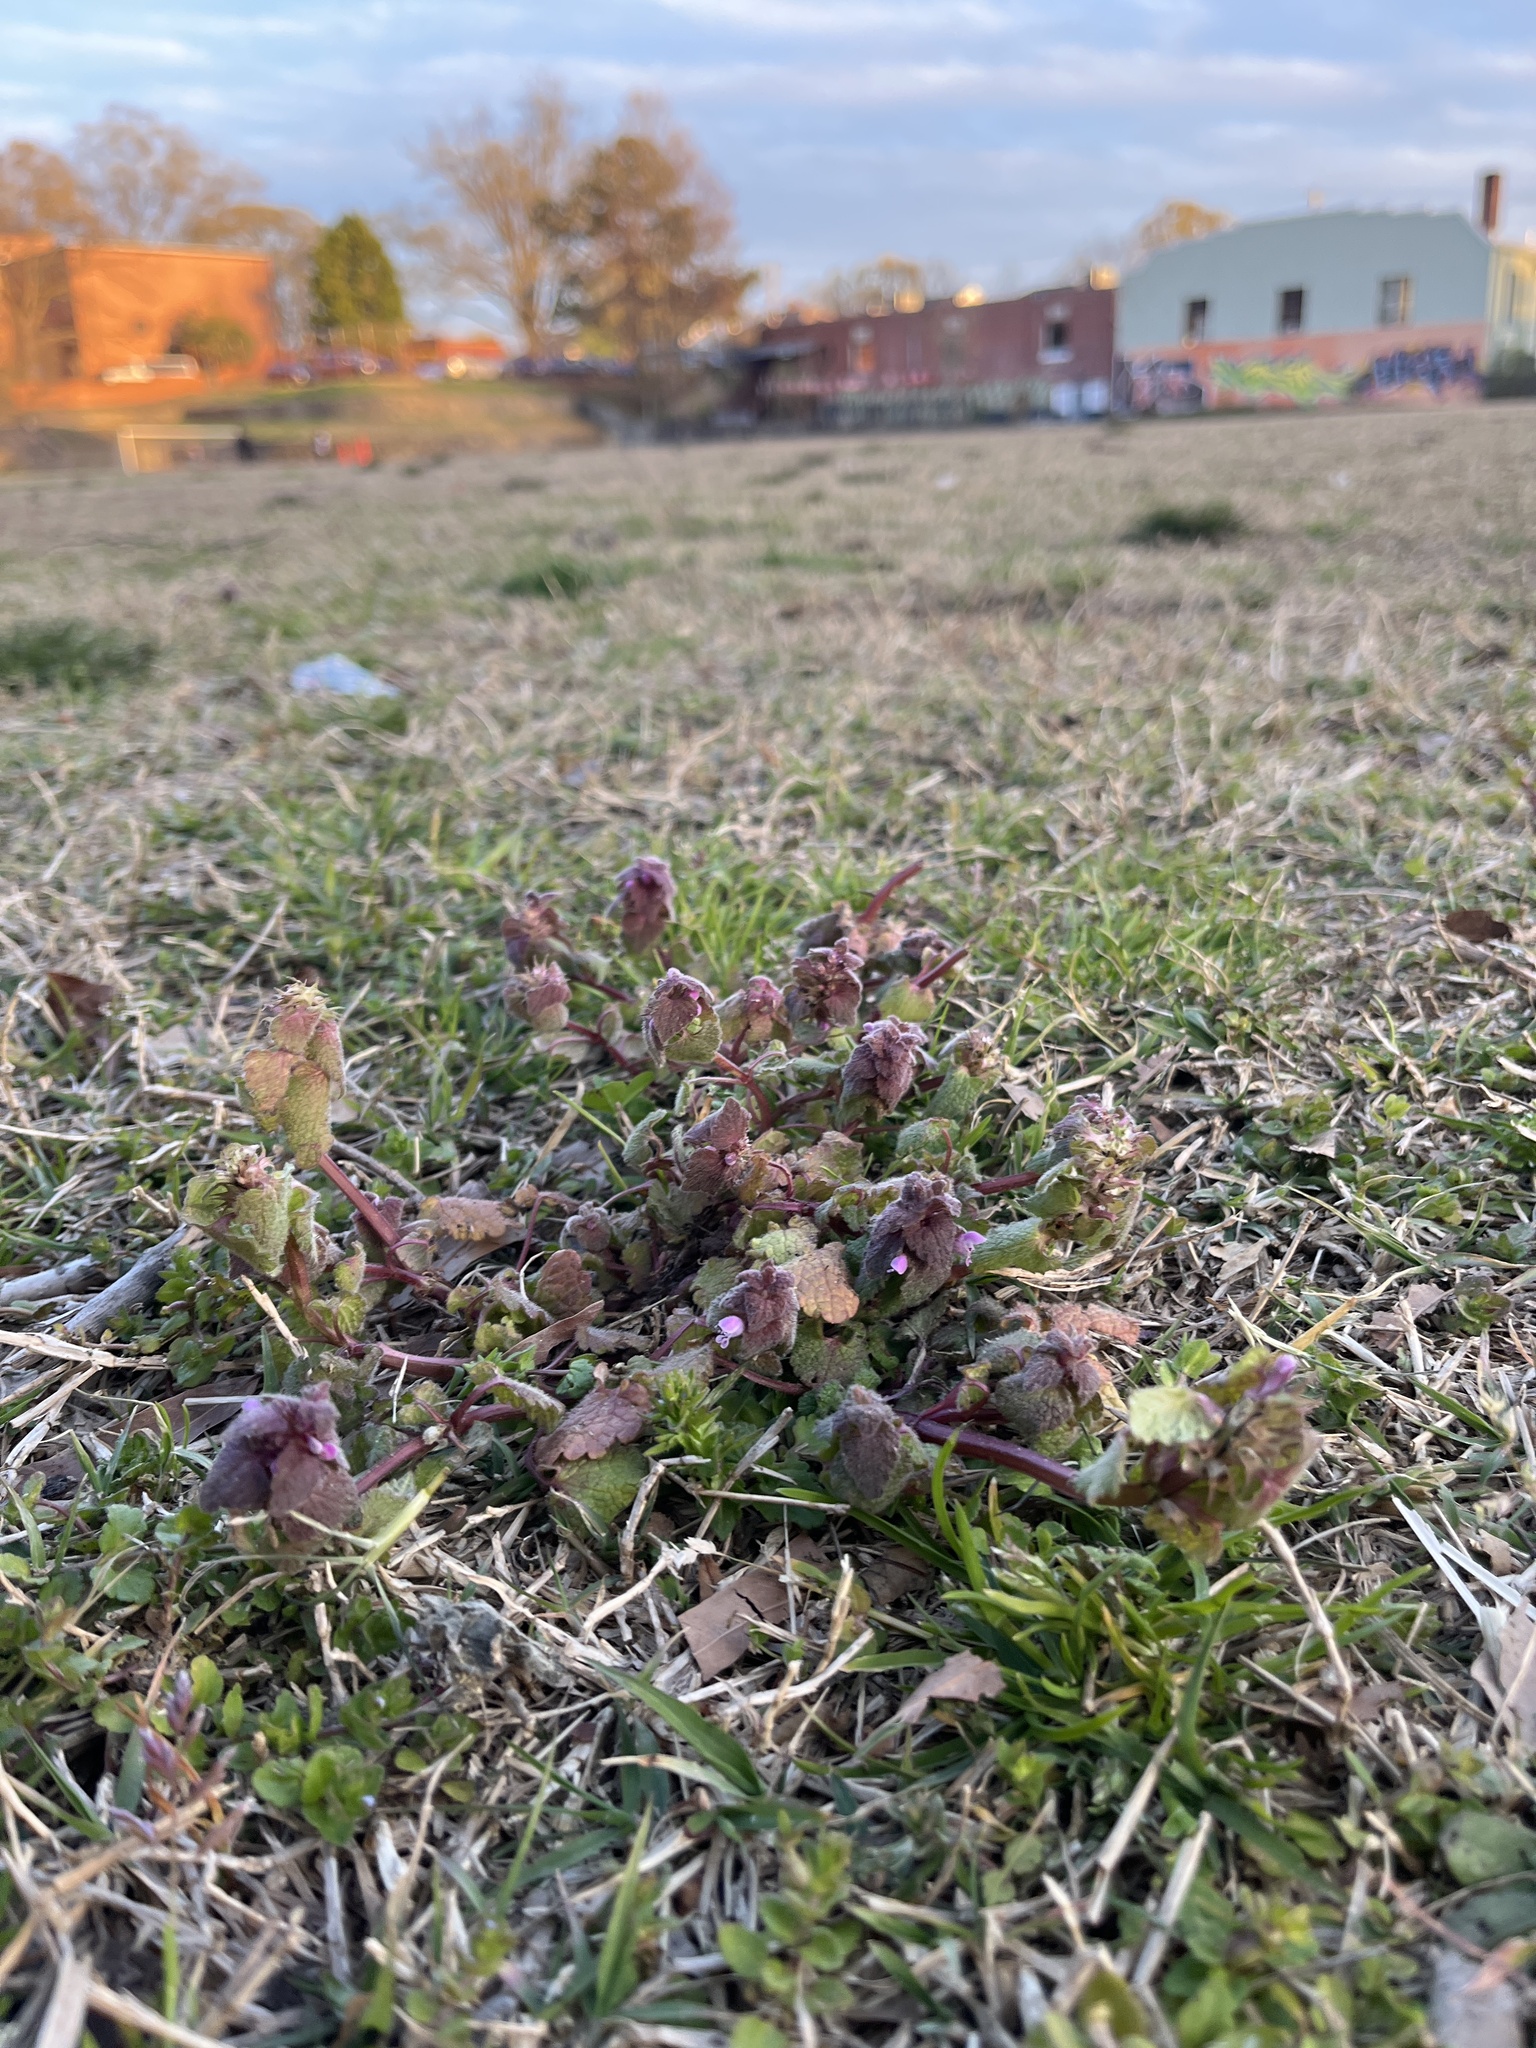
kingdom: Plantae
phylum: Tracheophyta
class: Magnoliopsida
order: Lamiales
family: Lamiaceae
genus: Lamium
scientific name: Lamium purpureum
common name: Red dead-nettle
